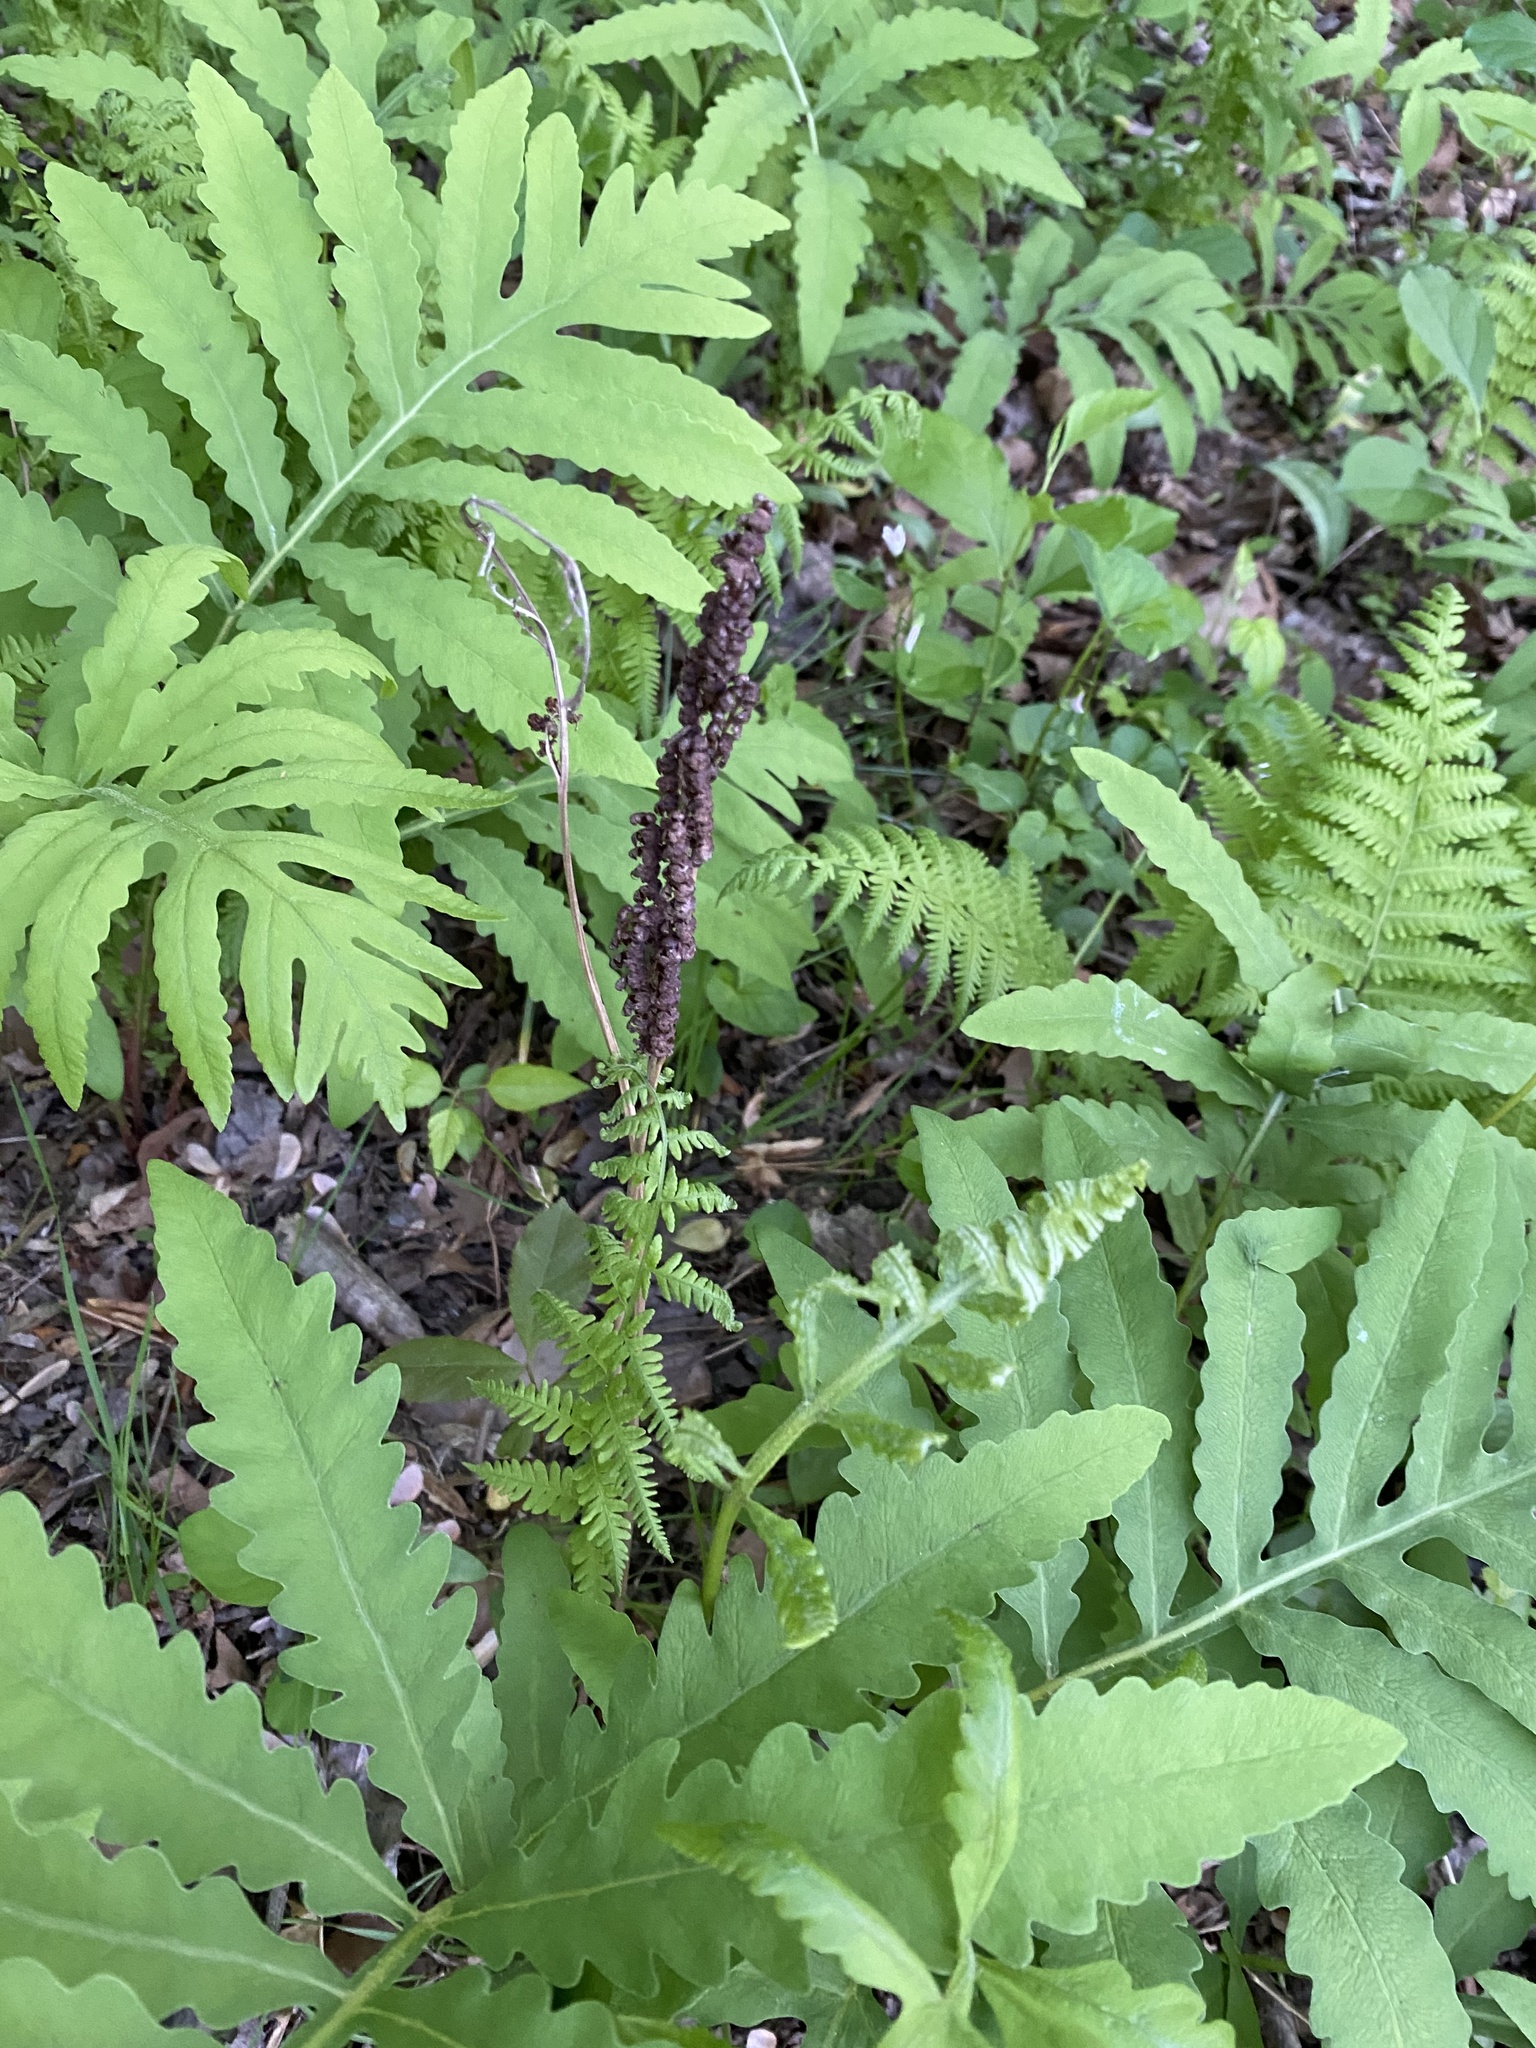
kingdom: Plantae
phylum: Tracheophyta
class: Polypodiopsida
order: Polypodiales
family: Onocleaceae
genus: Onoclea
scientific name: Onoclea sensibilis
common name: Sensitive fern
